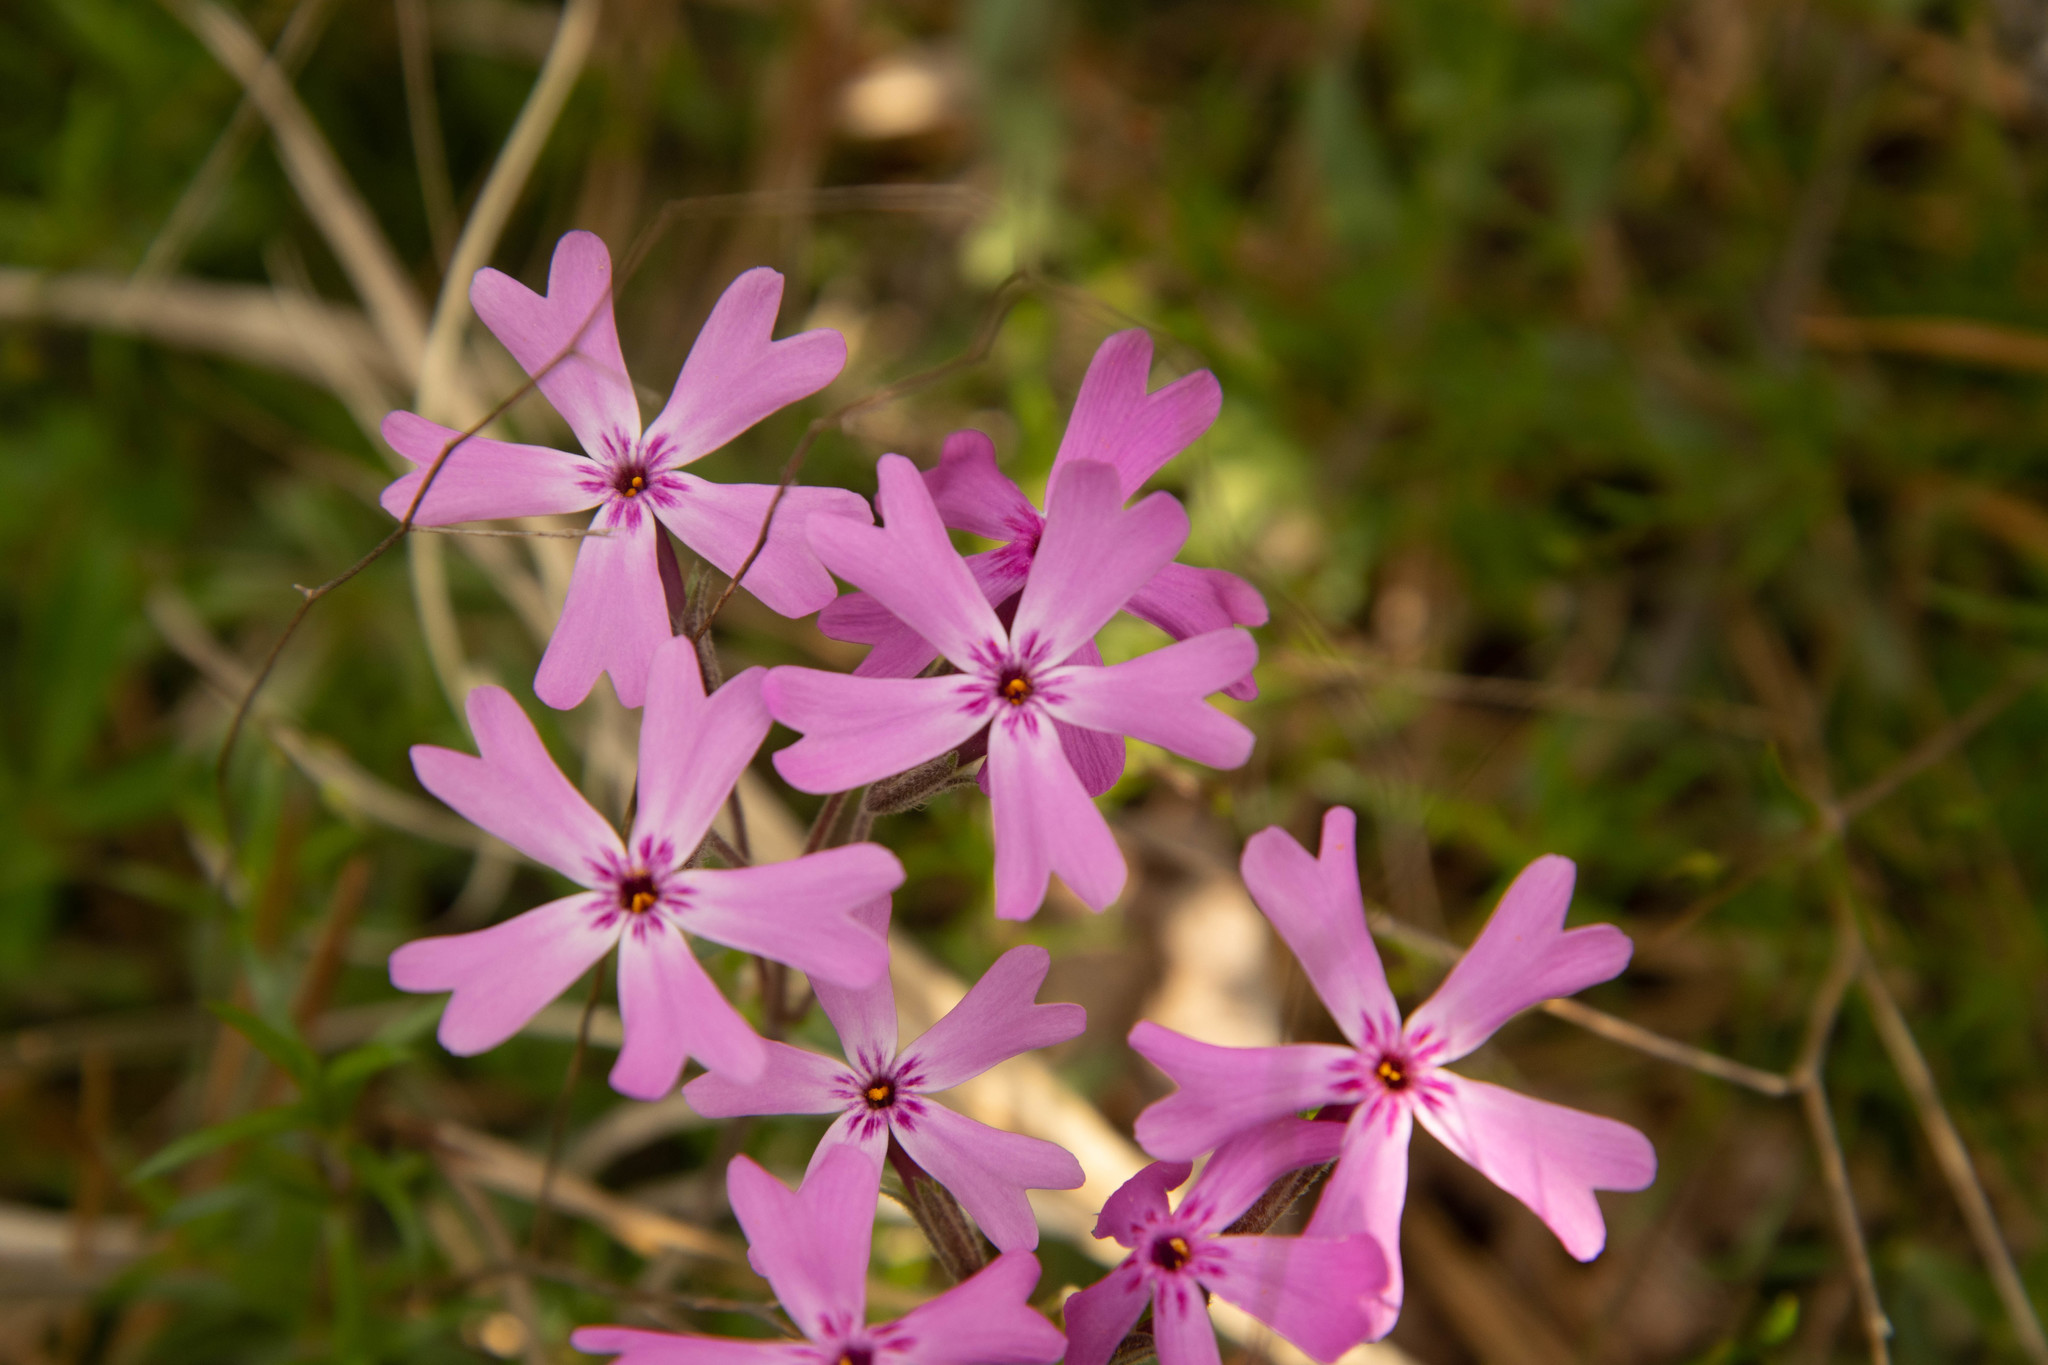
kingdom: Plantae
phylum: Tracheophyta
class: Magnoliopsida
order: Ericales
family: Polemoniaceae
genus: Phlox
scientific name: Phlox subulata
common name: Moss phlox
